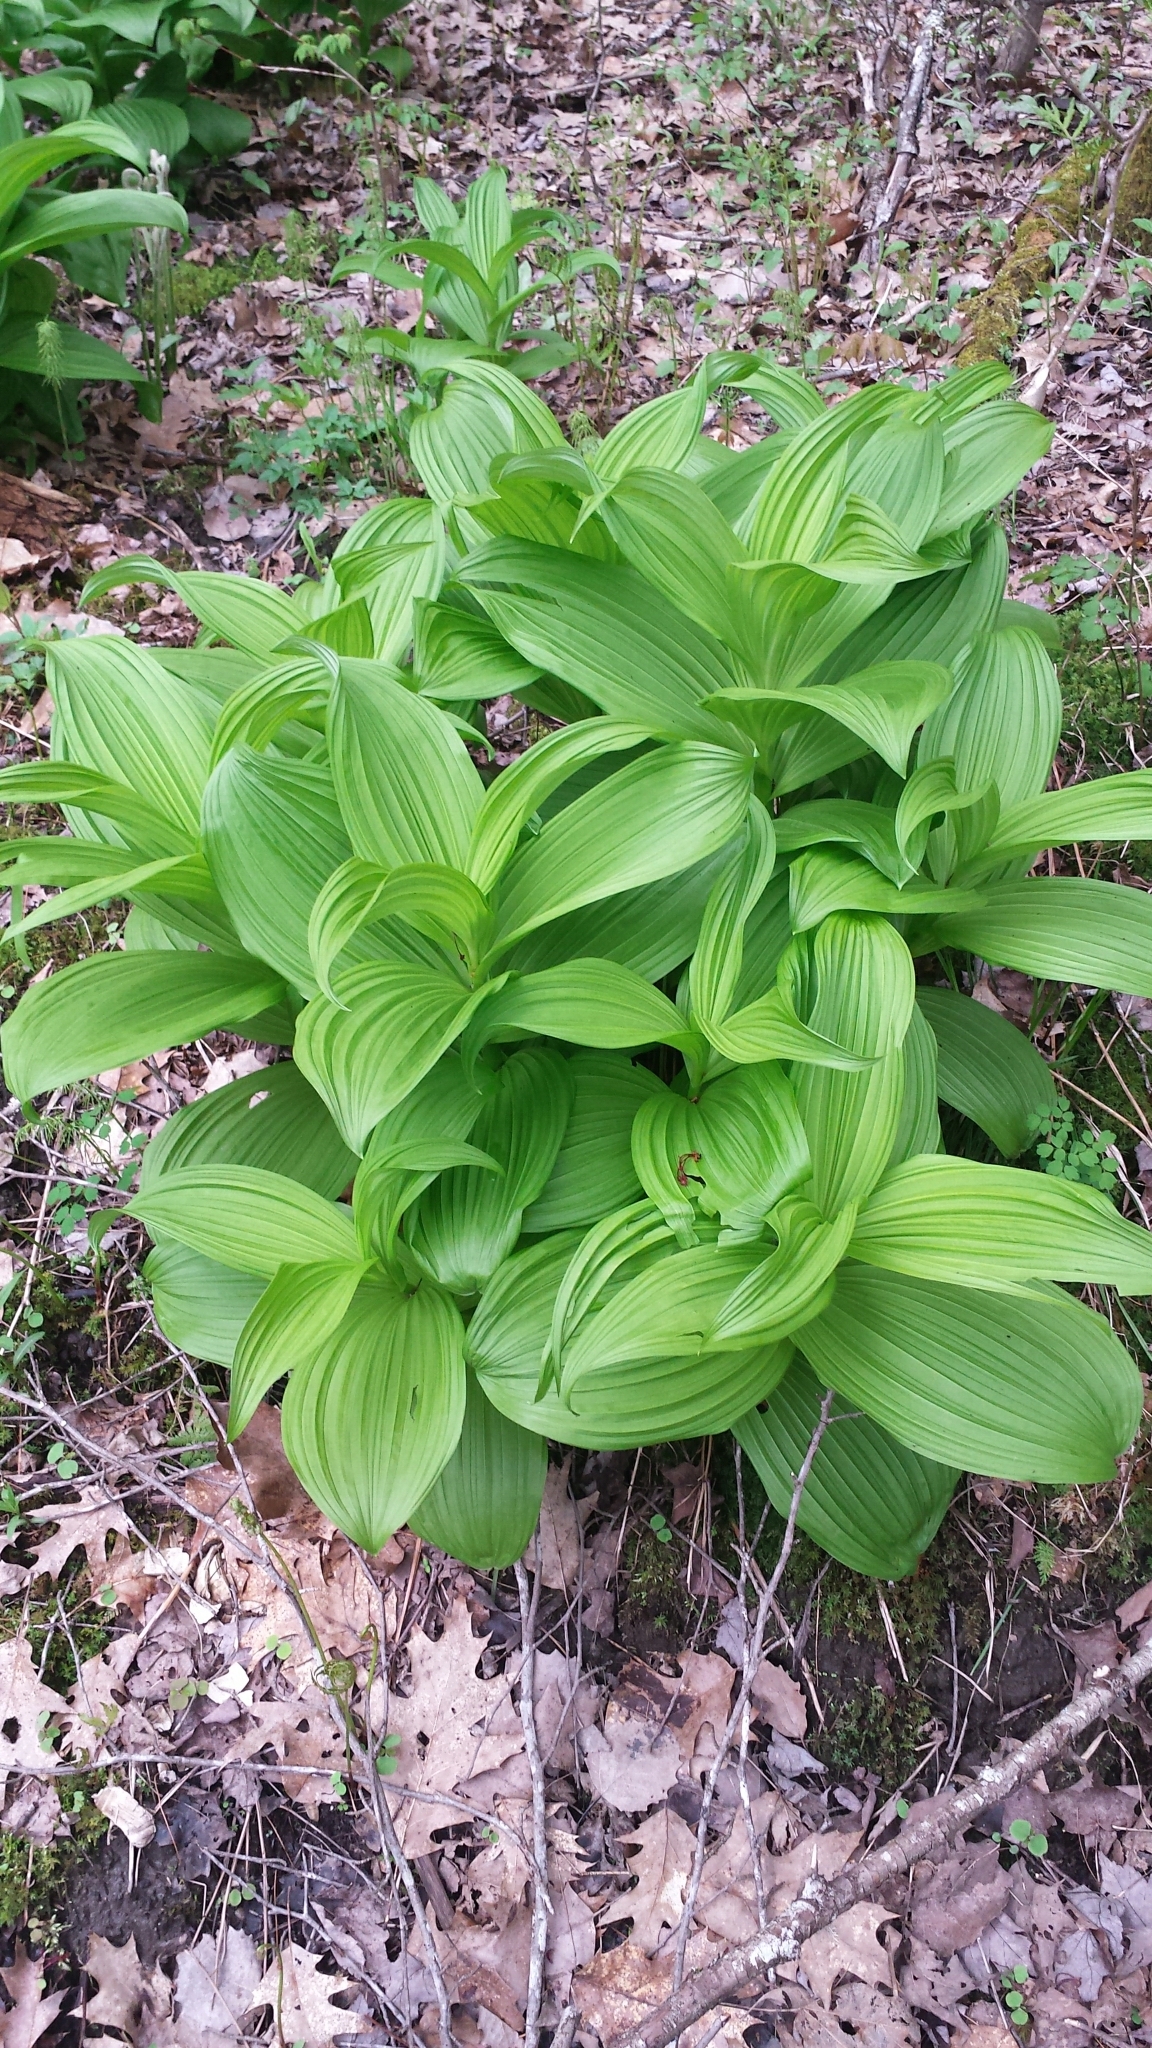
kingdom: Plantae
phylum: Tracheophyta
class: Liliopsida
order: Liliales
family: Melanthiaceae
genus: Veratrum
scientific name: Veratrum viride
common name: American false hellebore
